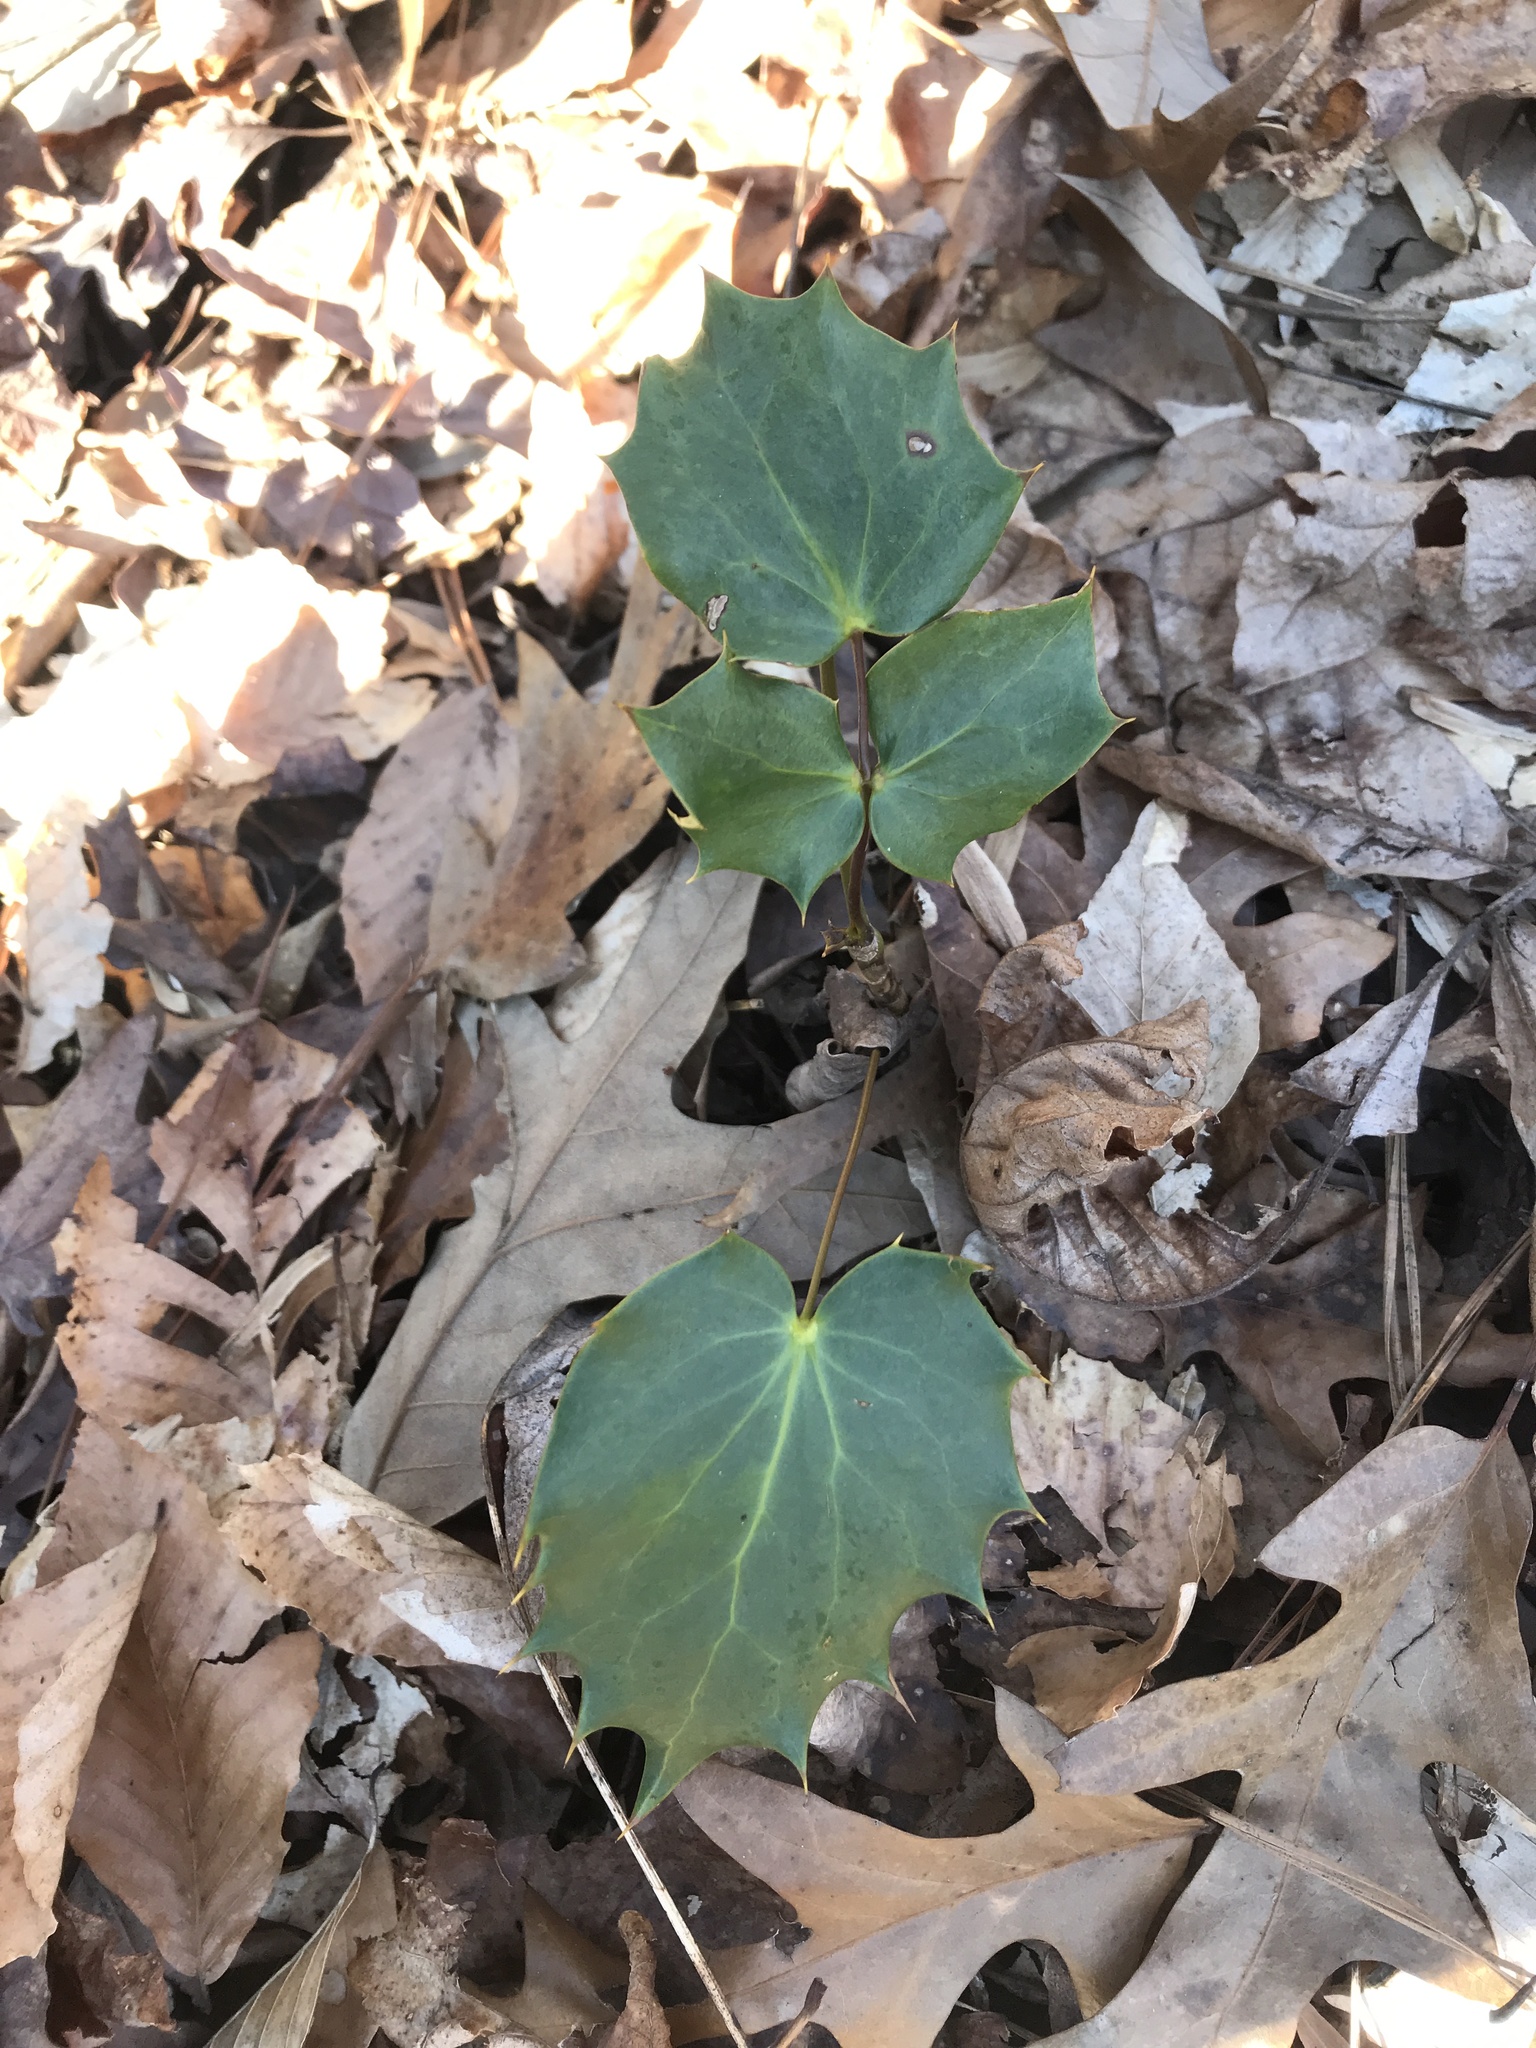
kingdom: Plantae
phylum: Tracheophyta
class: Magnoliopsida
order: Ranunculales
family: Berberidaceae
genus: Mahonia
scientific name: Mahonia bealei
